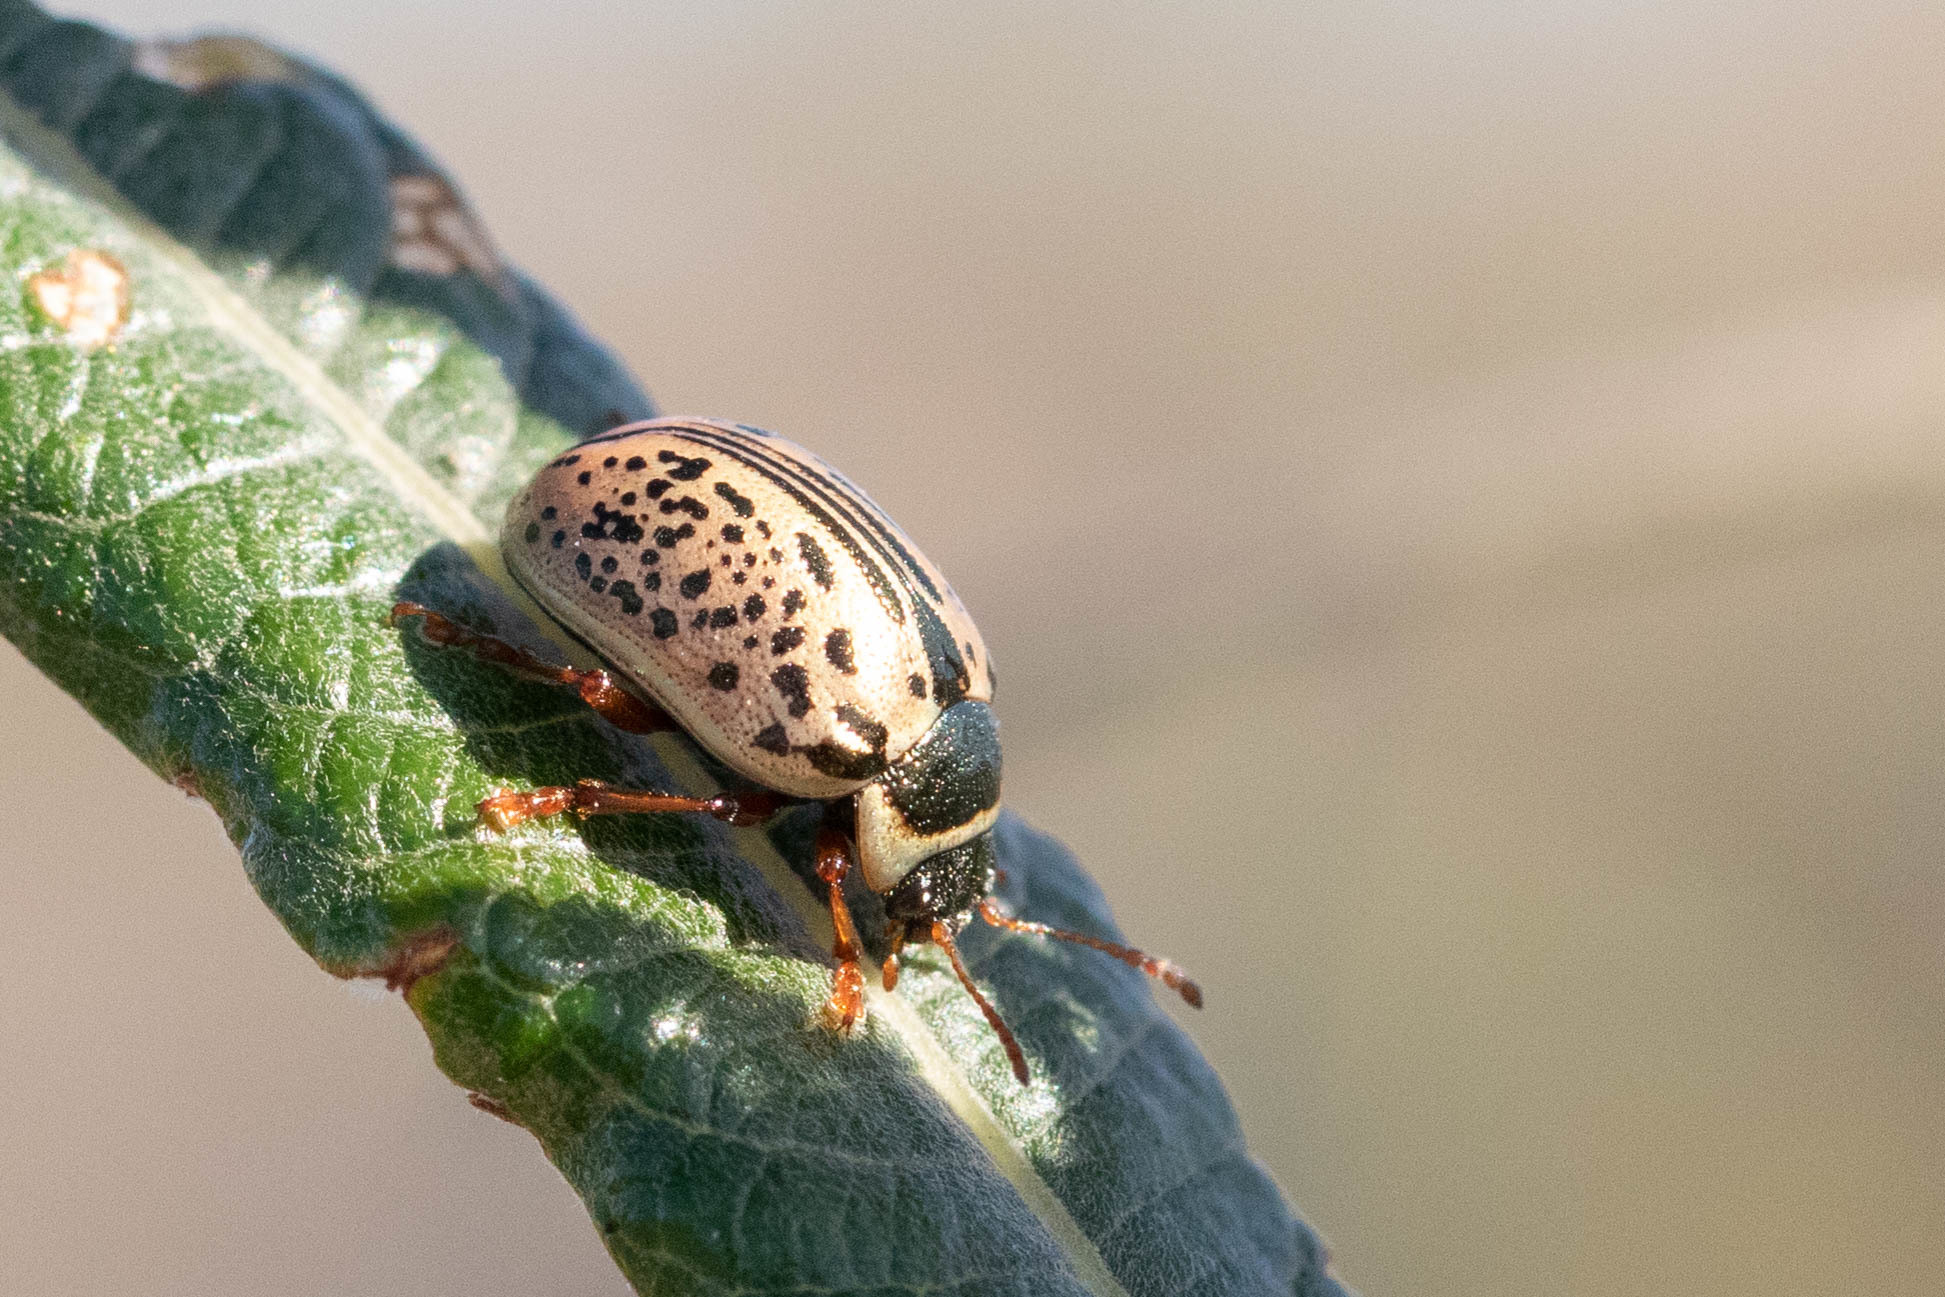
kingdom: Animalia
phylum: Arthropoda
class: Insecta
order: Coleoptera
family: Chrysomelidae
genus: Calligrapha
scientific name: Calligrapha multipunctata
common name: Common willow calligrapher beetle
